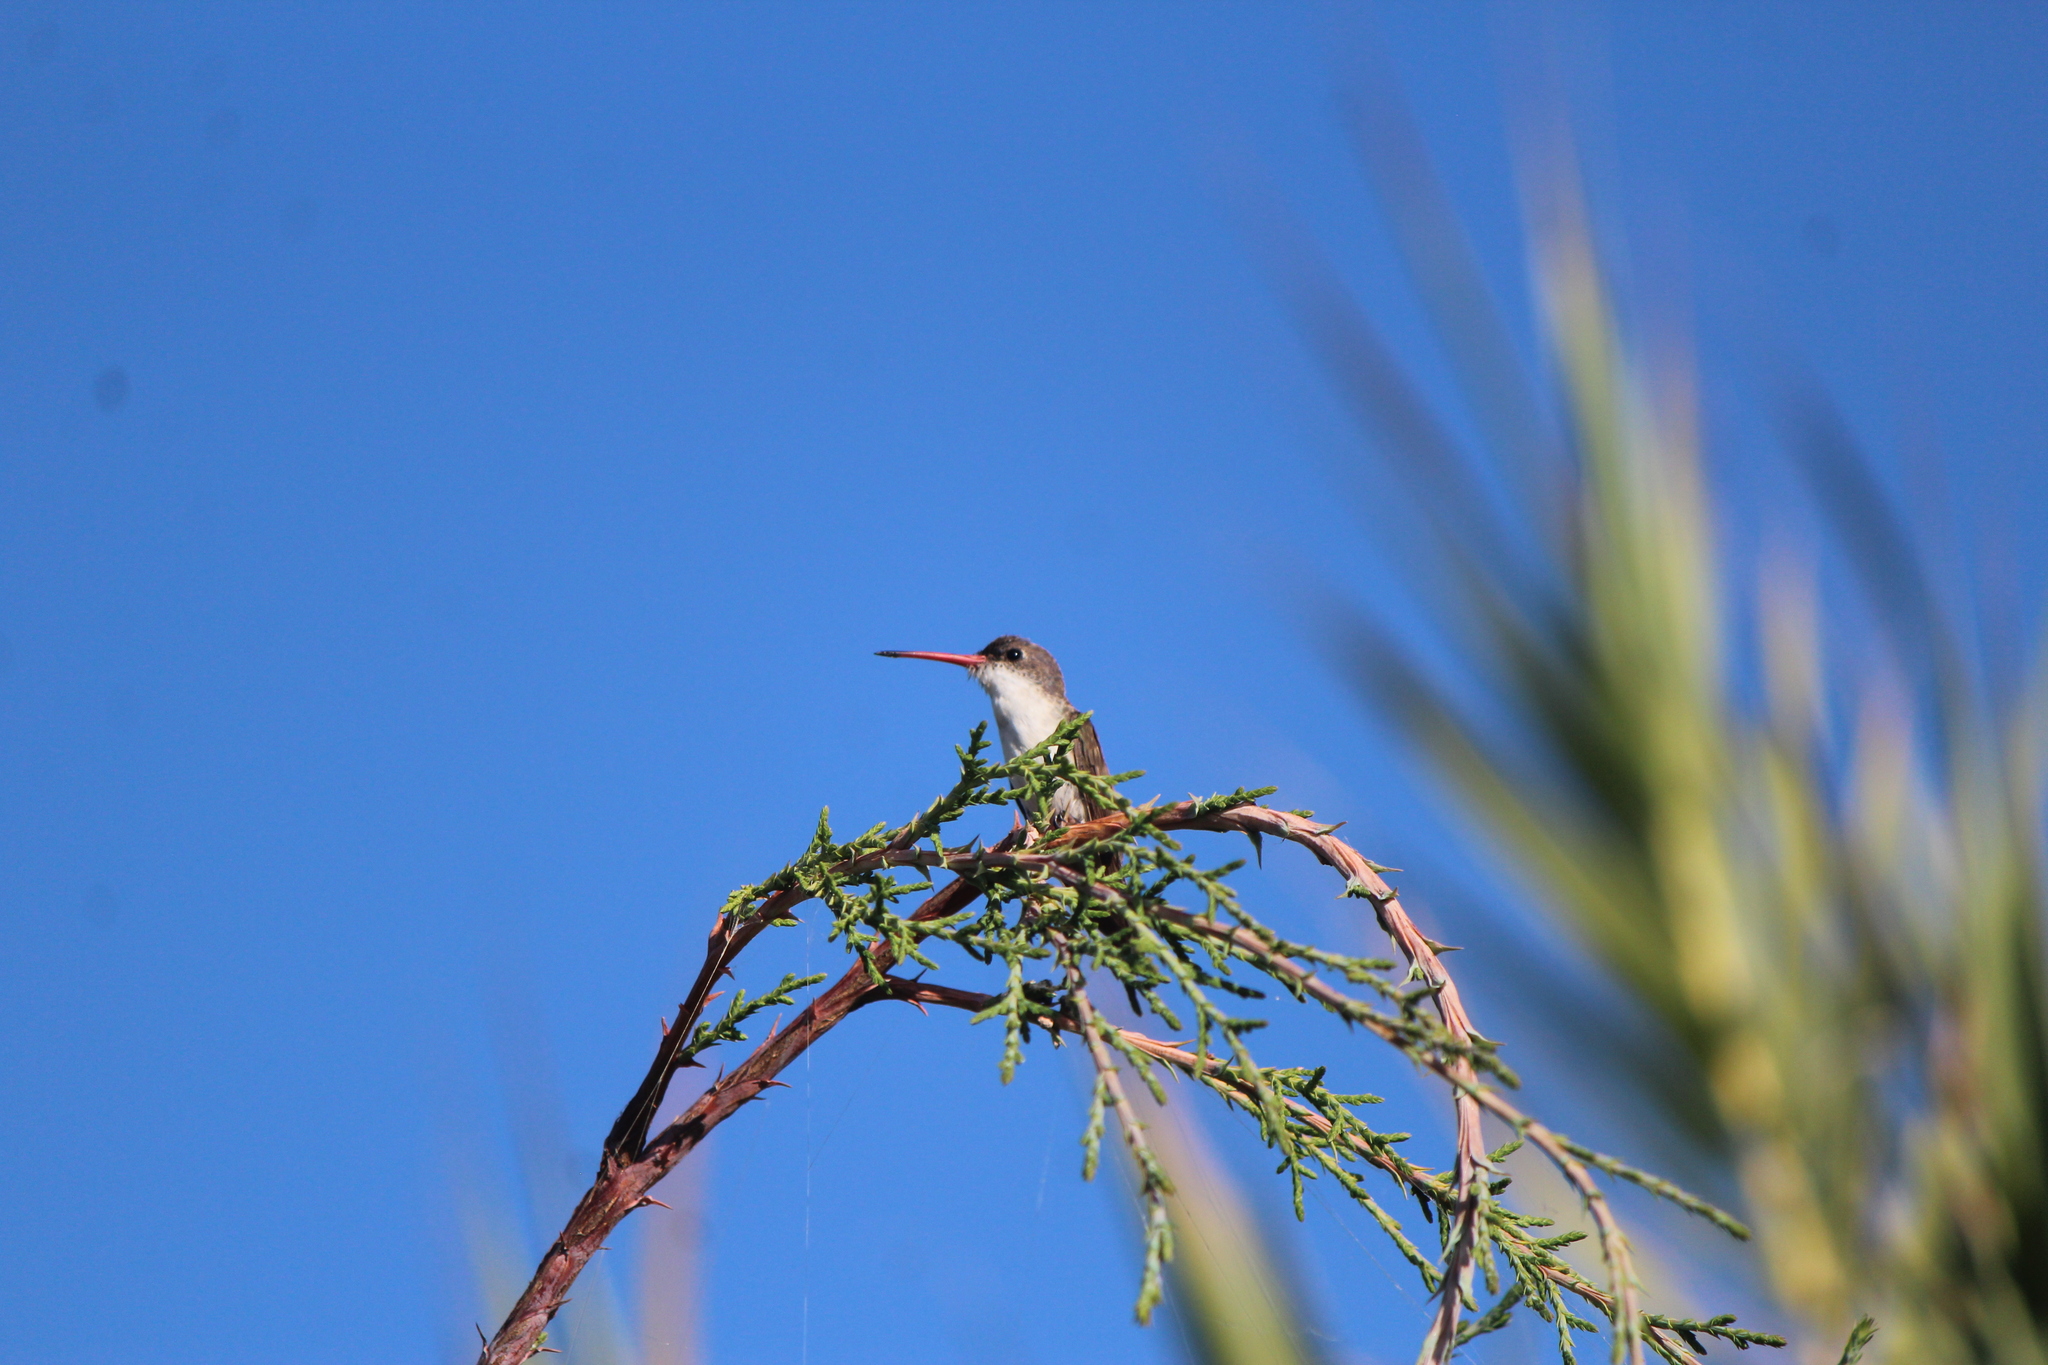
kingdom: Animalia
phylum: Chordata
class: Aves
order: Apodiformes
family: Trochilidae
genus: Leucolia
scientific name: Leucolia violiceps
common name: Violet-crowned hummingbird
